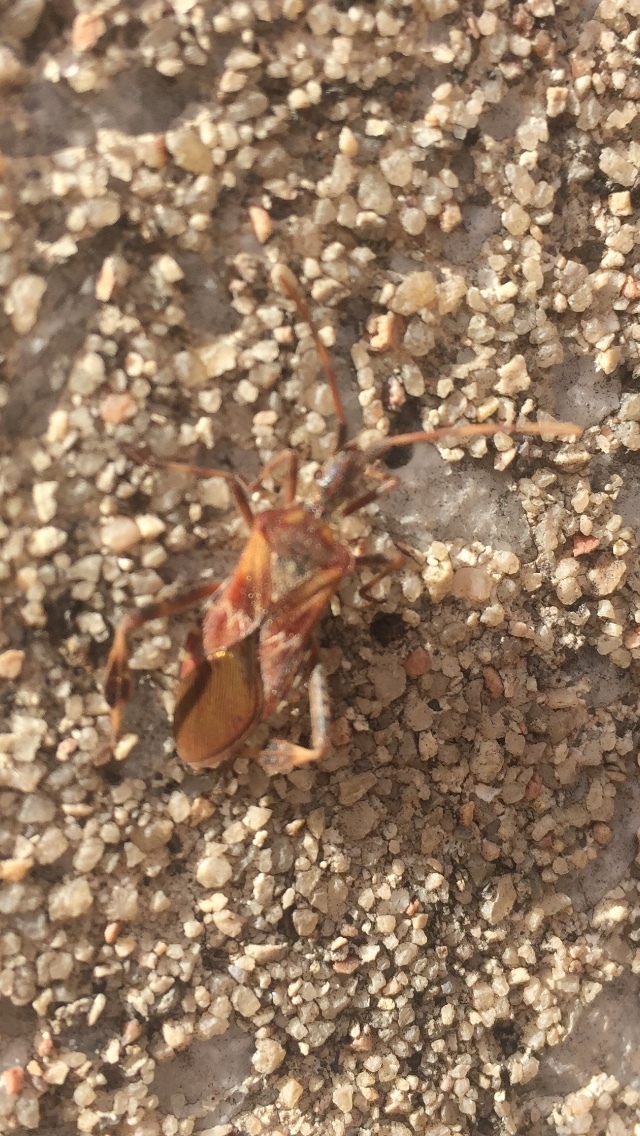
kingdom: Animalia
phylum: Arthropoda
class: Insecta
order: Hemiptera
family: Coreidae
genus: Leptoglossus
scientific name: Leptoglossus occidentalis
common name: Western conifer-seed bug
